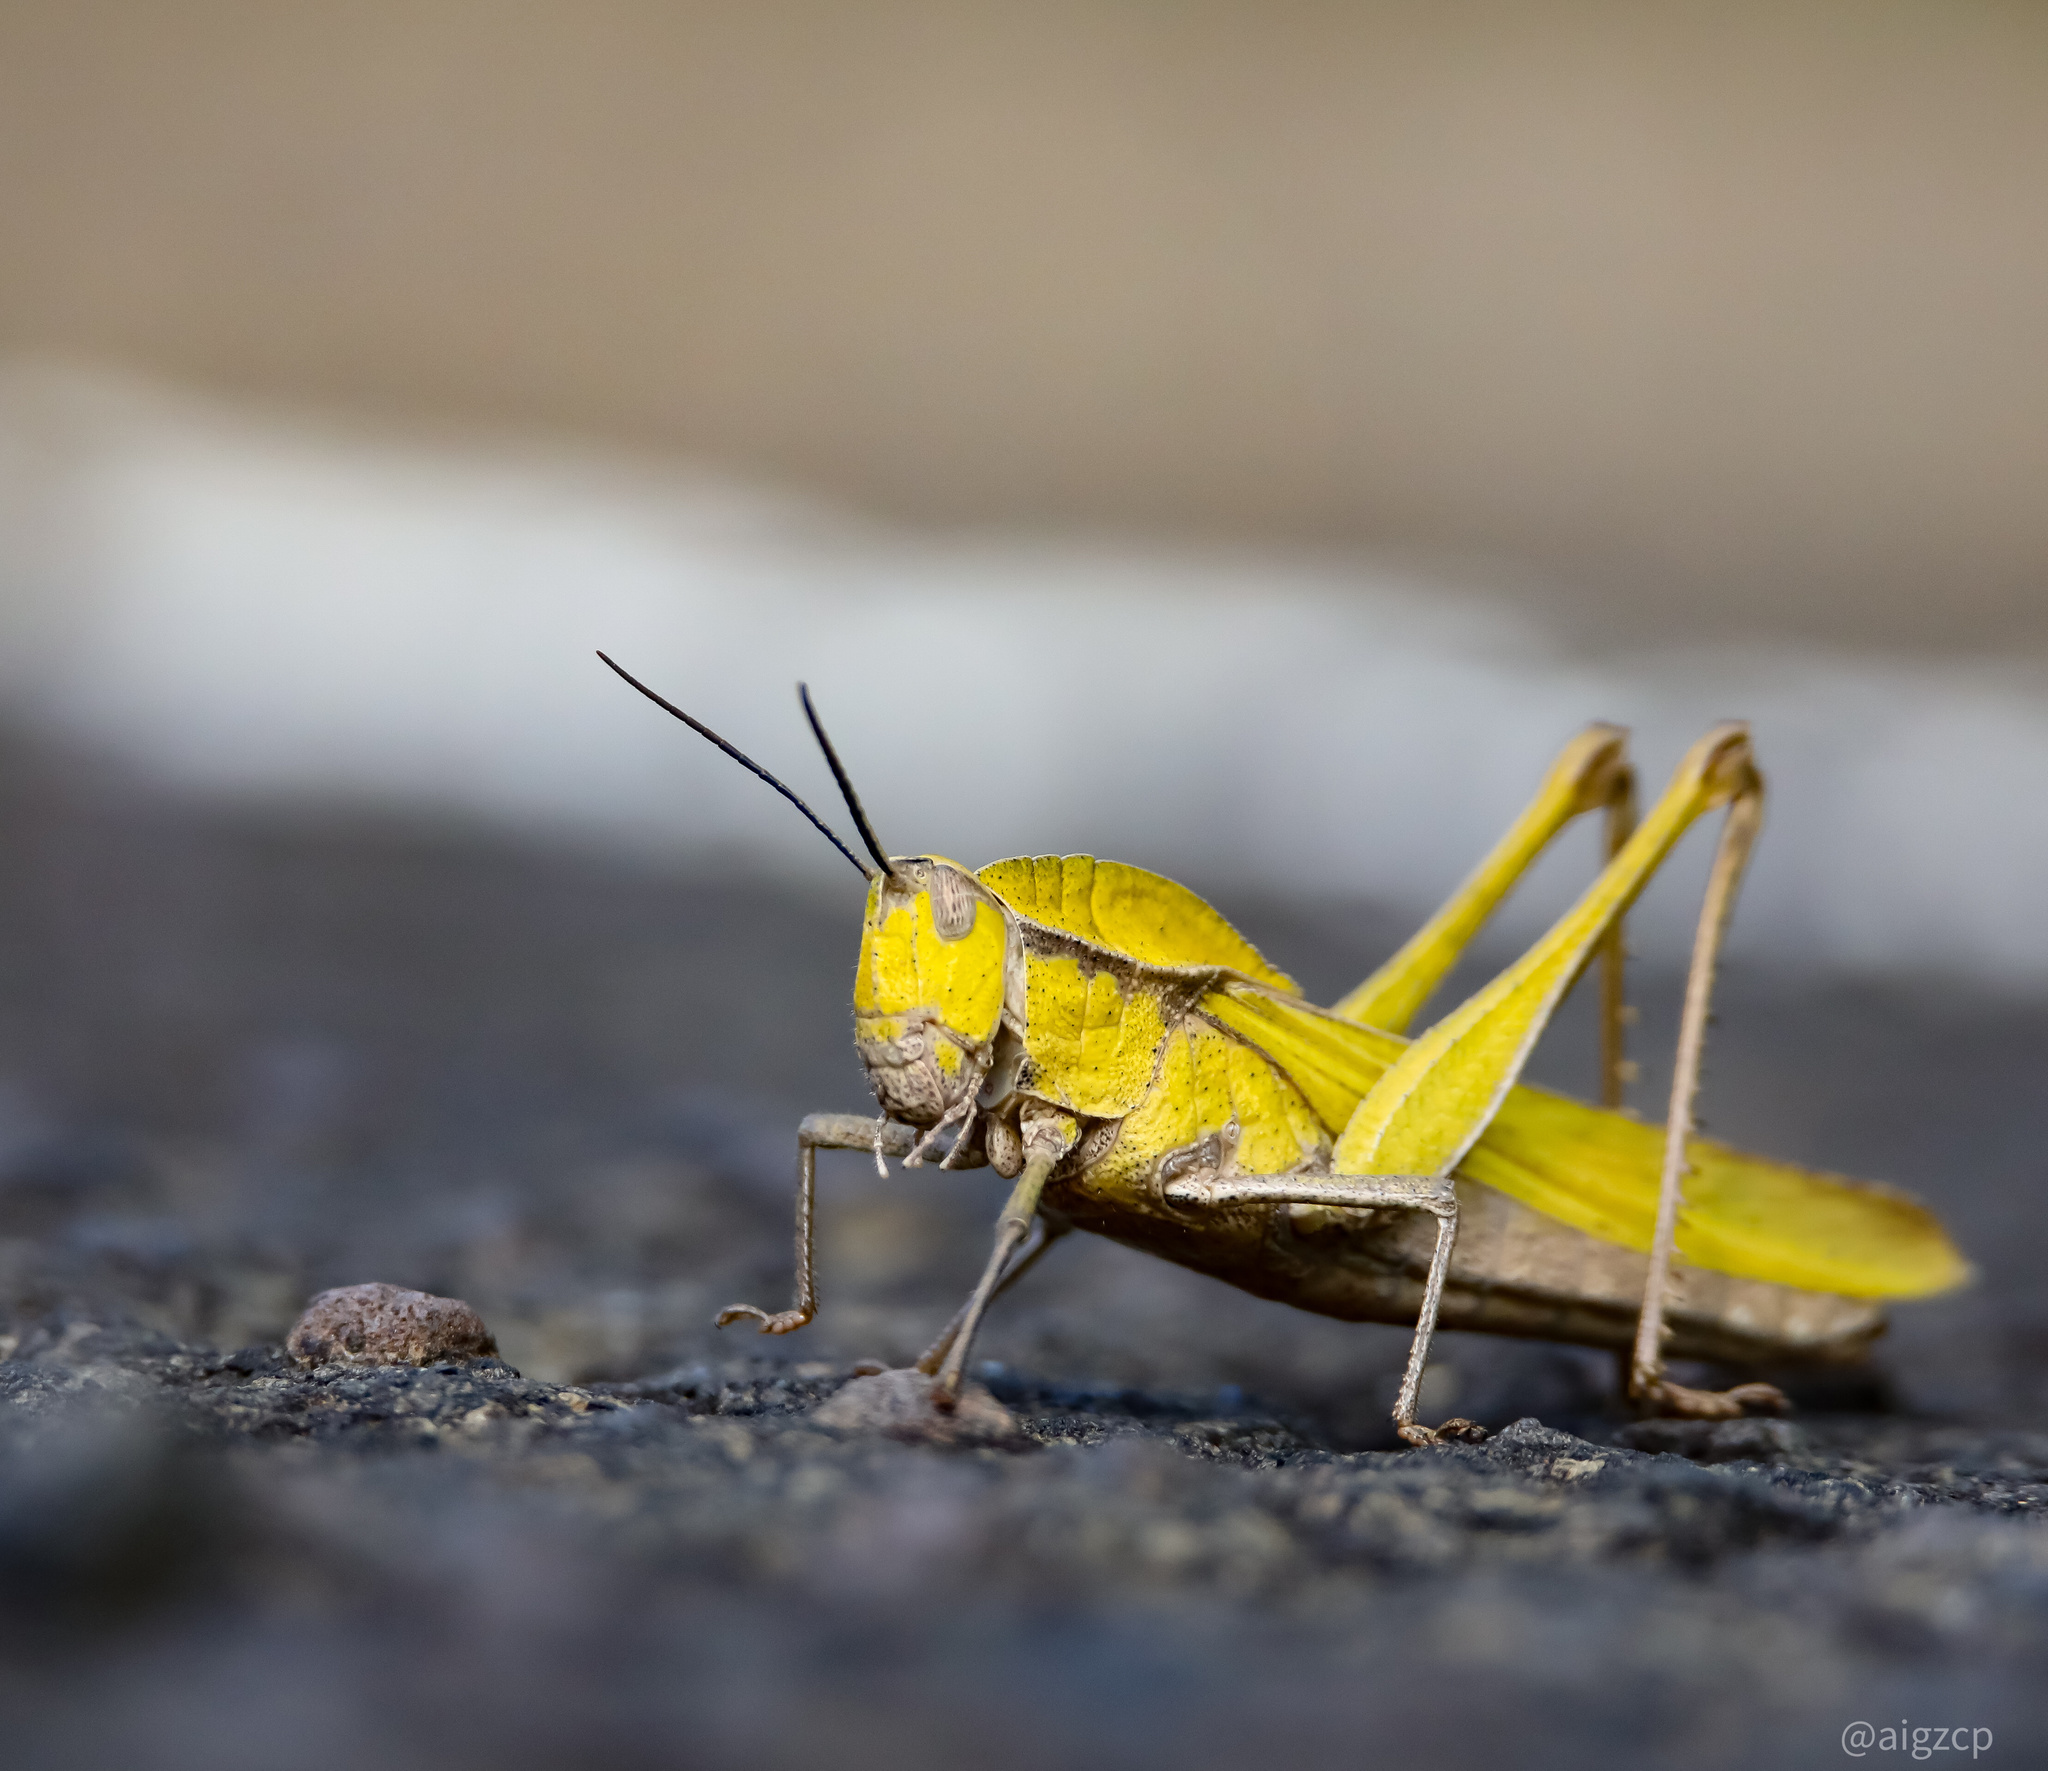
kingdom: Animalia
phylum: Arthropoda
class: Insecta
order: Orthoptera
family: Romaleidae
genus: Xyleus
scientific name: Xyleus discoideus
